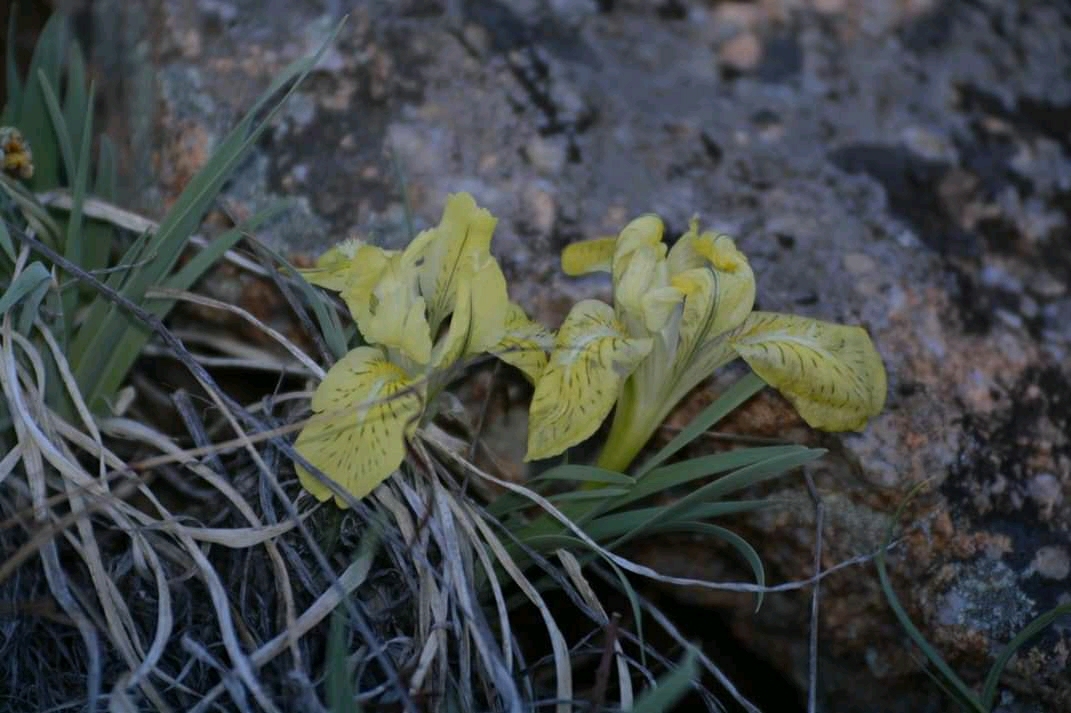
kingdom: Plantae
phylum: Tracheophyta
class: Liliopsida
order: Asparagales
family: Iridaceae
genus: Iris
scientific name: Iris potaninii
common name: Curl-sheath iris
